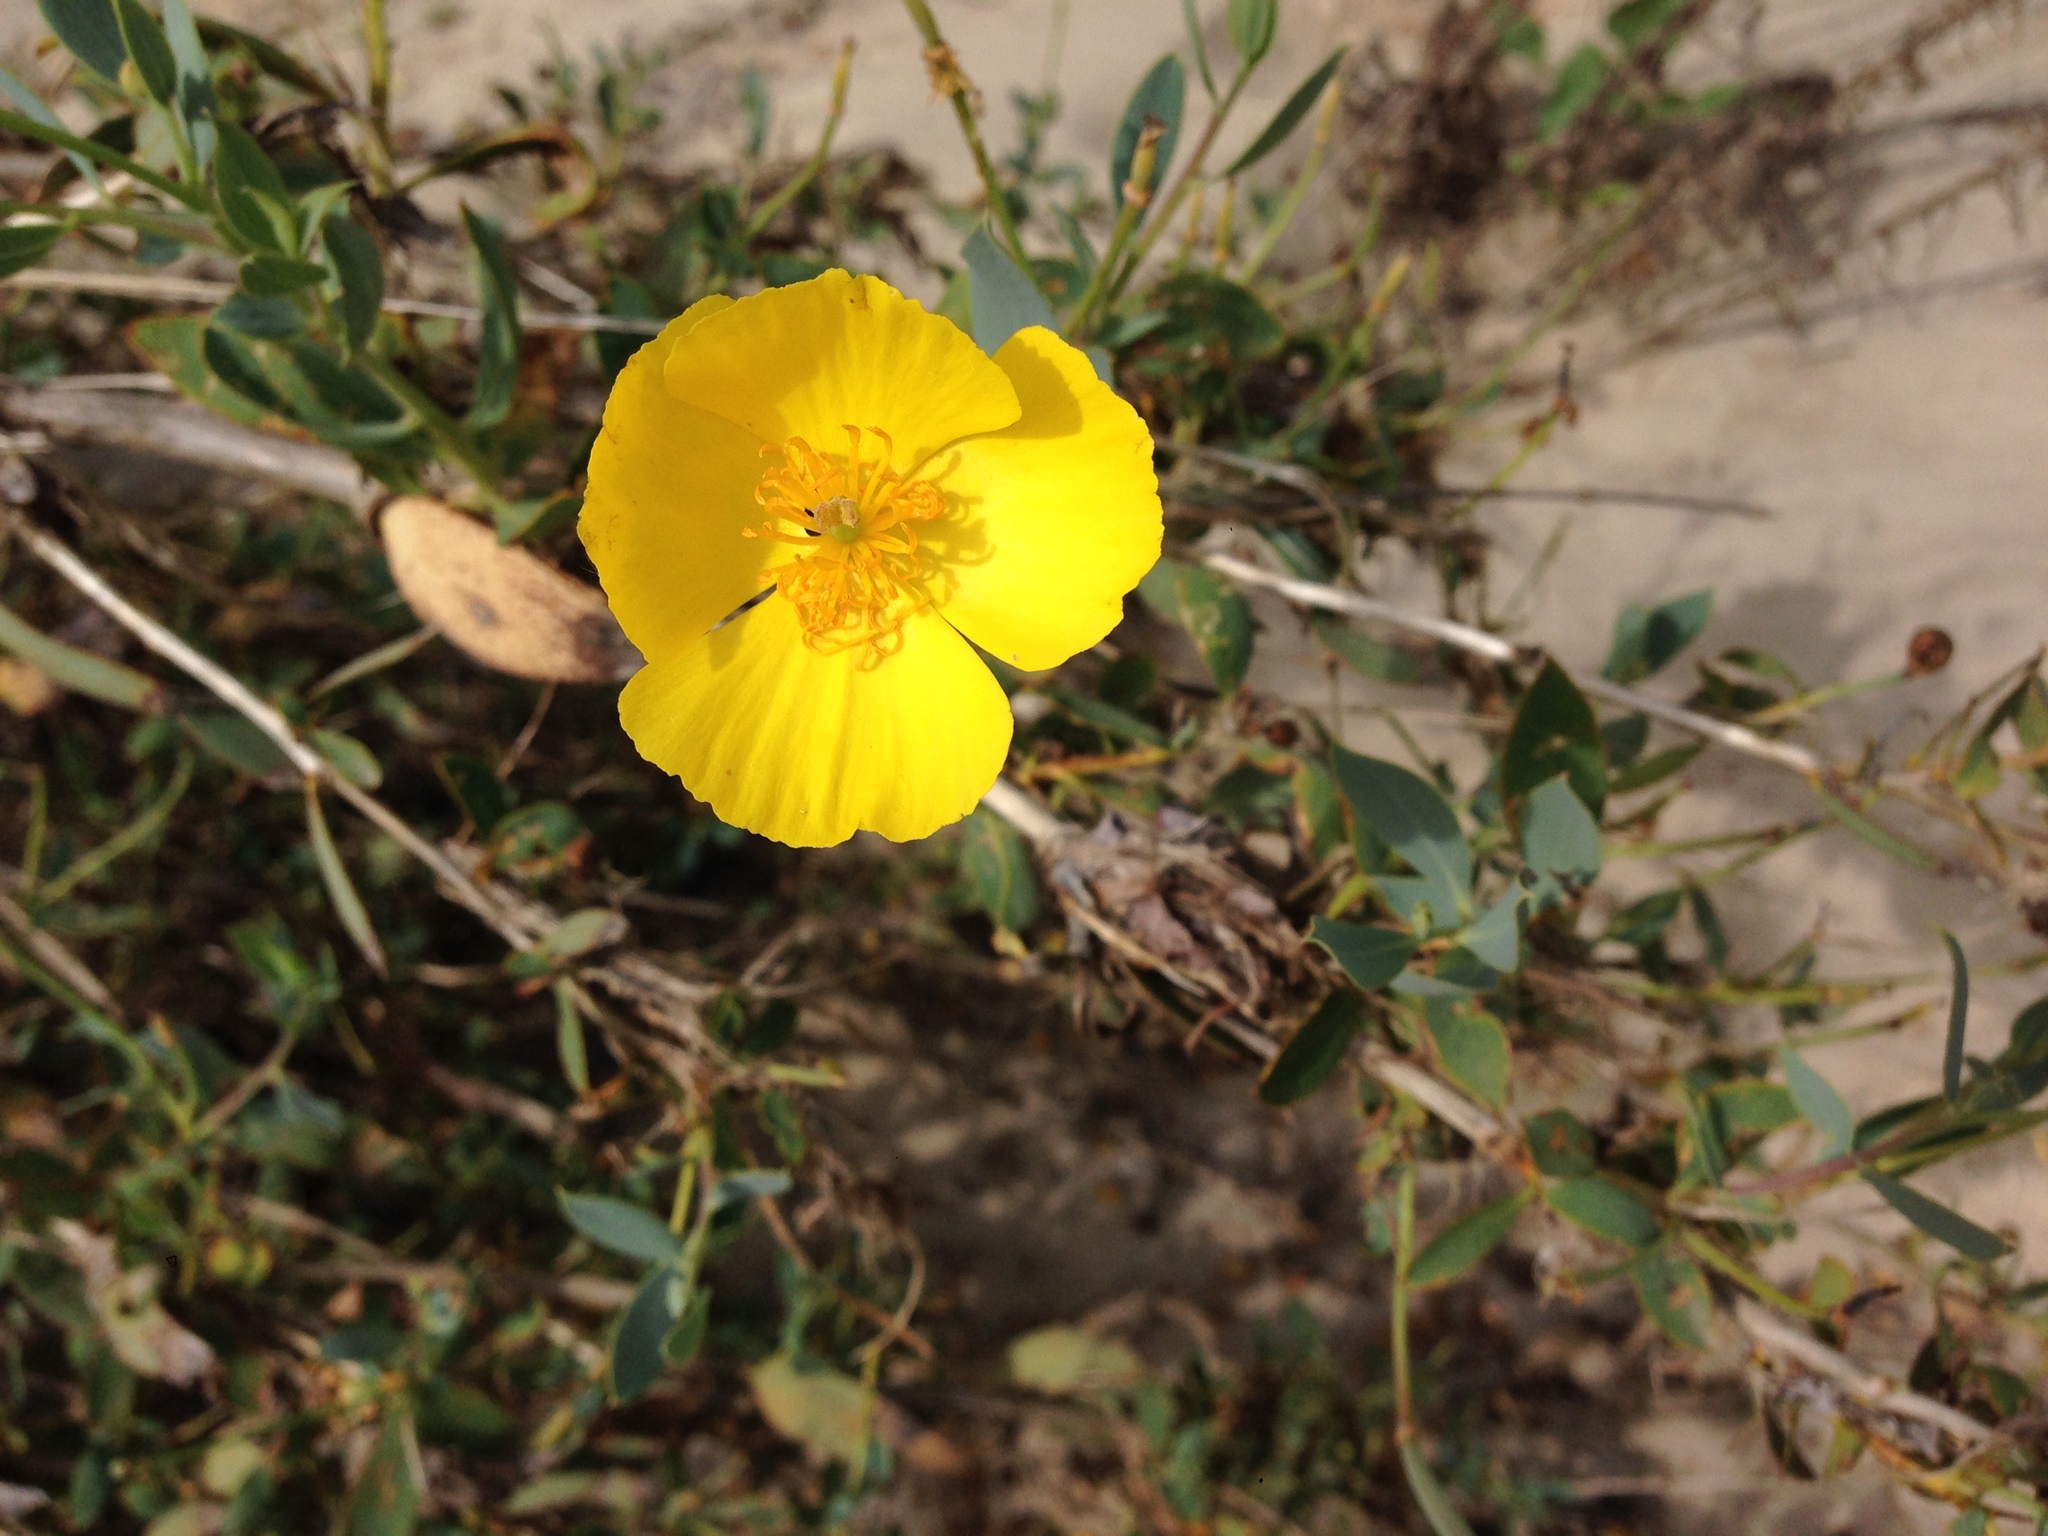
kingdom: Plantae
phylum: Tracheophyta
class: Magnoliopsida
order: Ranunculales
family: Papaveraceae
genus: Dendromecon
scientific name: Dendromecon rigida
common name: Tree poppy
